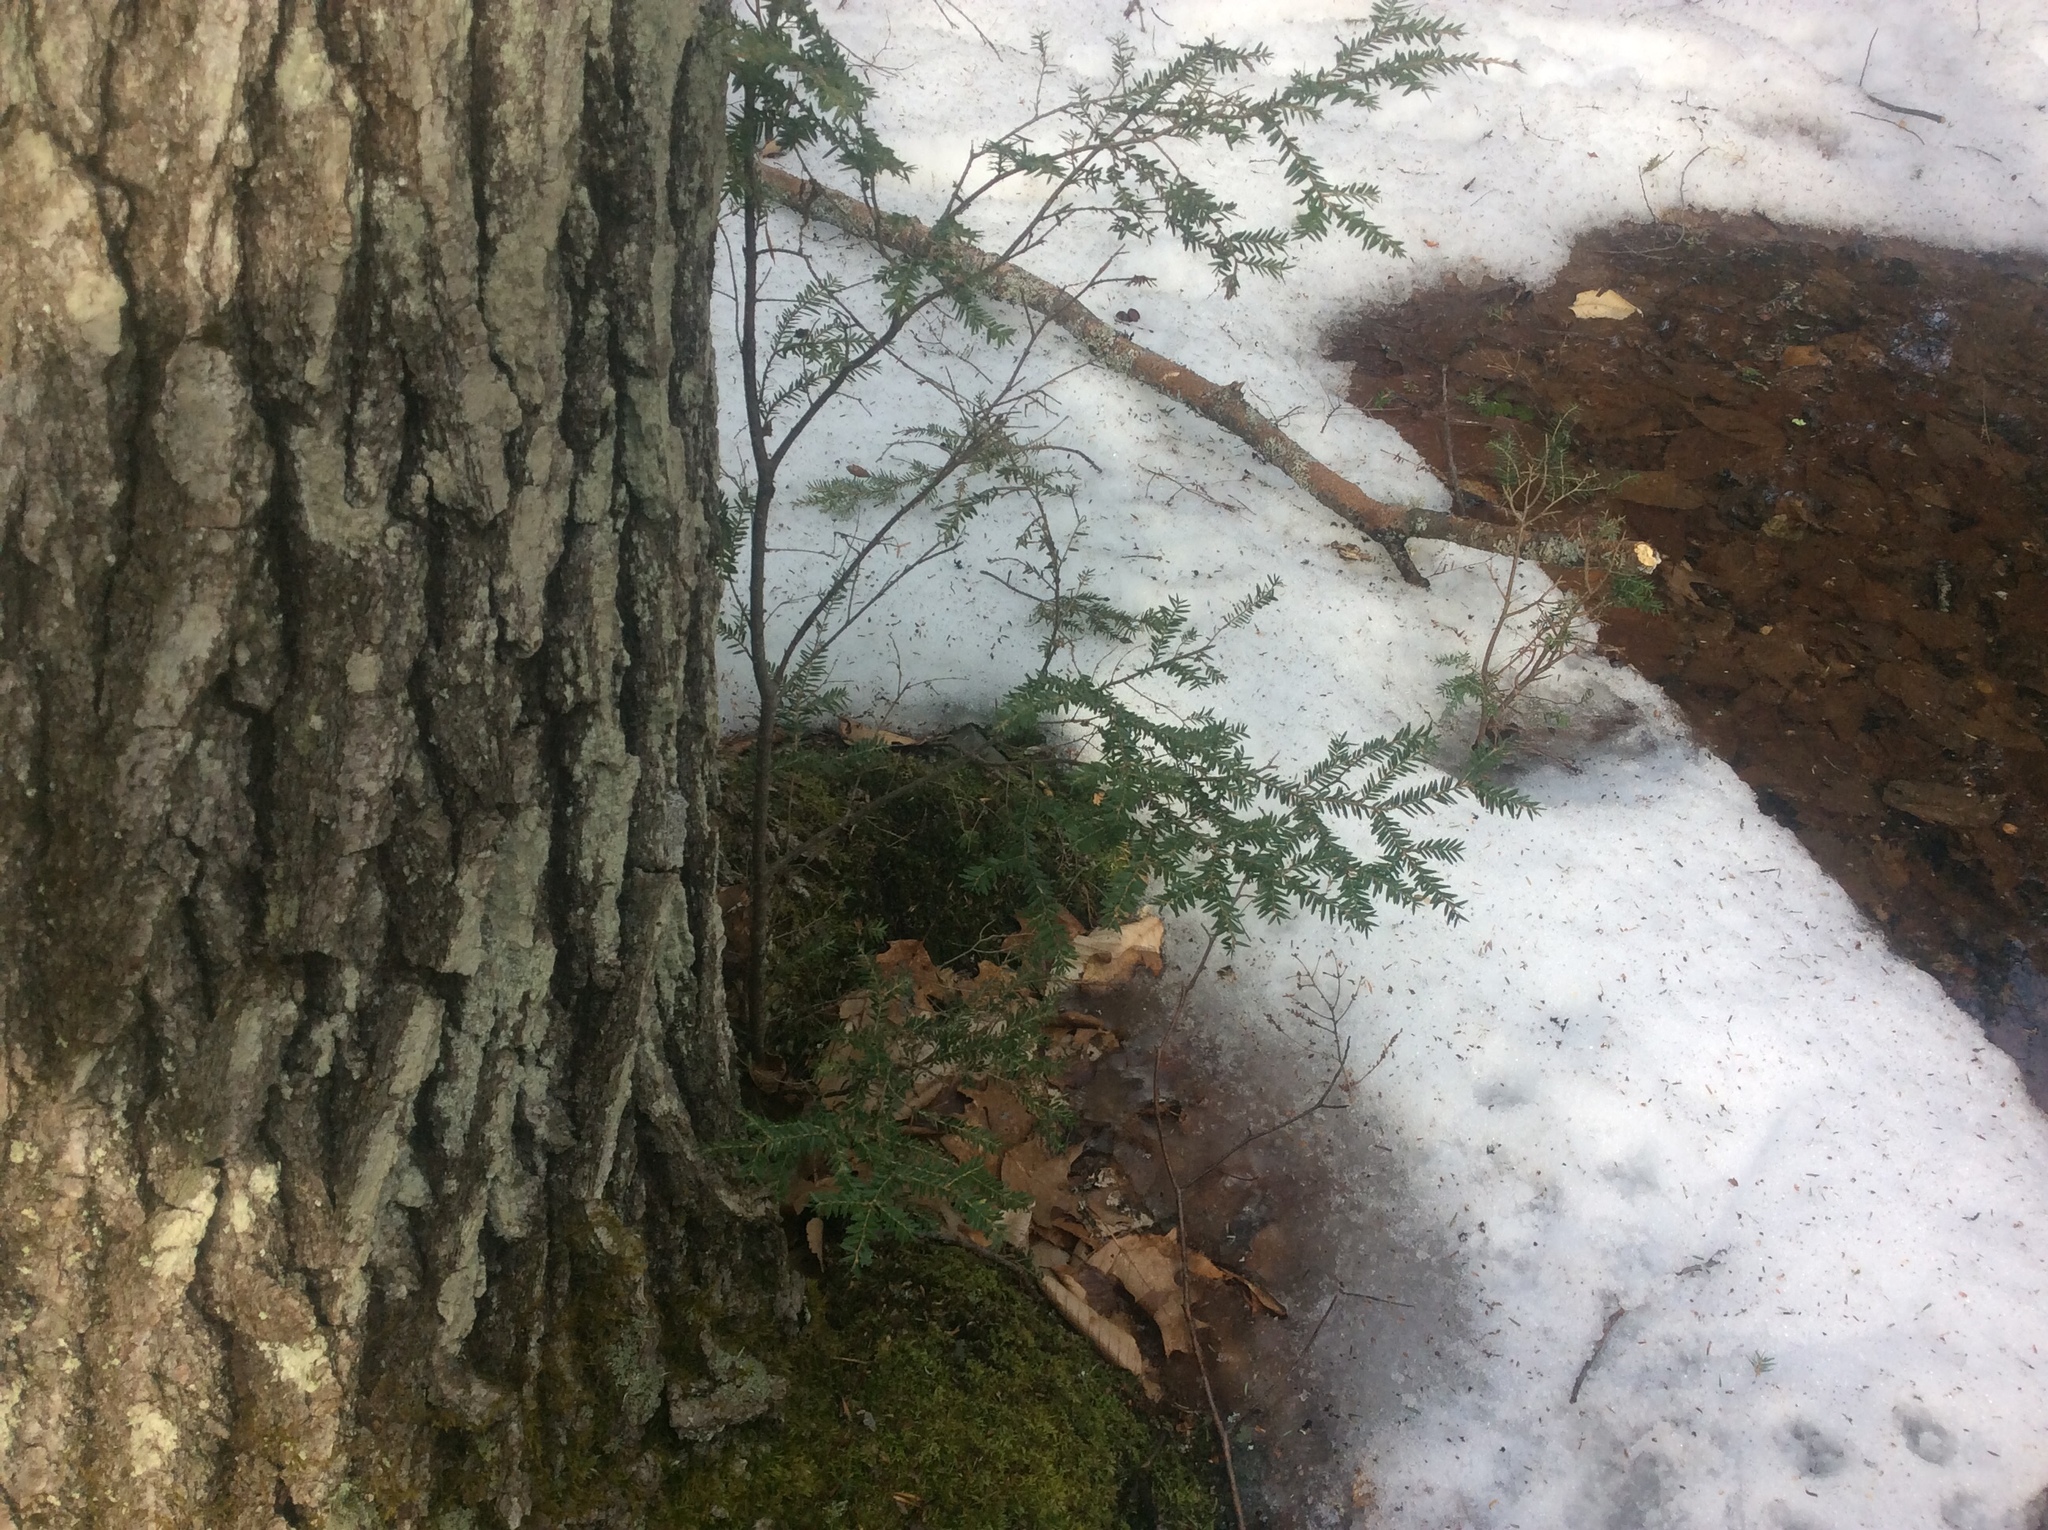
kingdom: Plantae
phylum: Tracheophyta
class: Pinopsida
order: Pinales
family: Pinaceae
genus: Tsuga
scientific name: Tsuga canadensis
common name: Eastern hemlock
